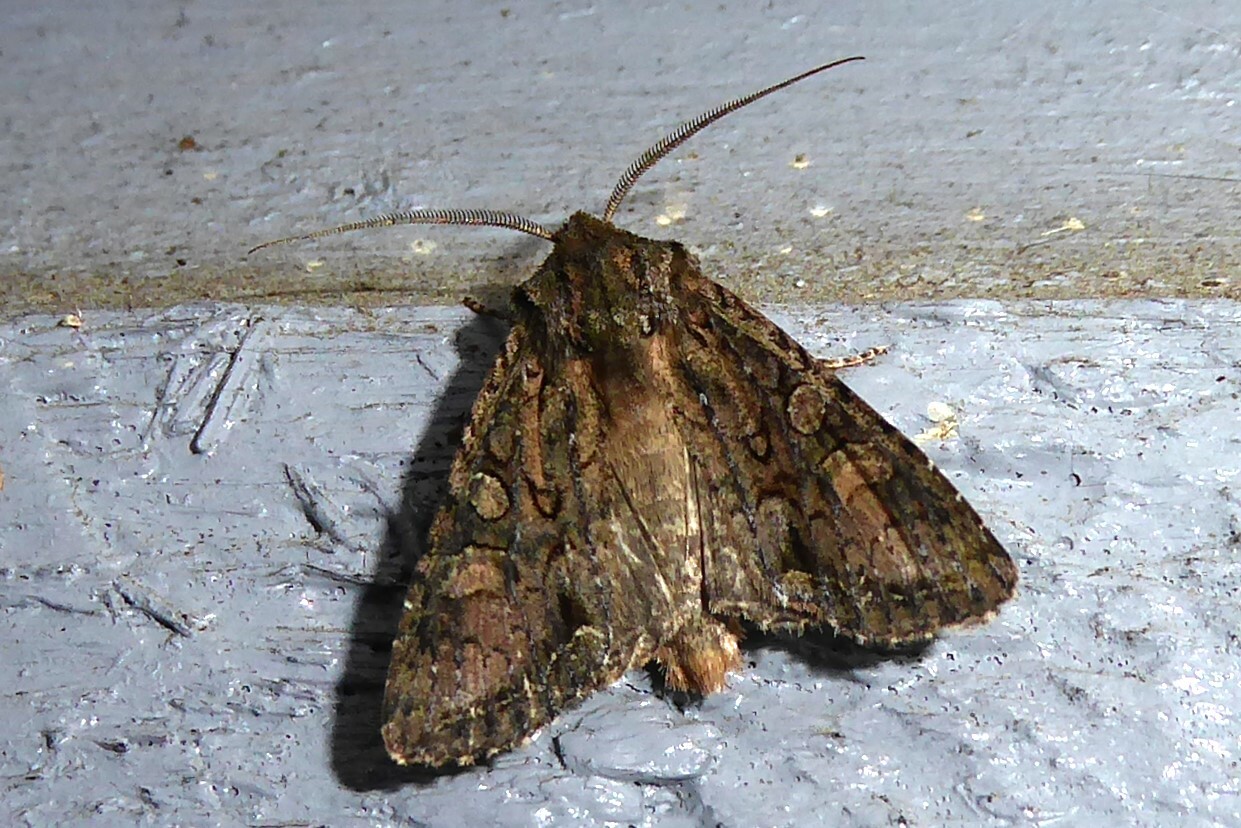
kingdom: Animalia
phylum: Arthropoda
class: Insecta
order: Lepidoptera
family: Noctuidae
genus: Ichneutica
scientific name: Ichneutica mutans
